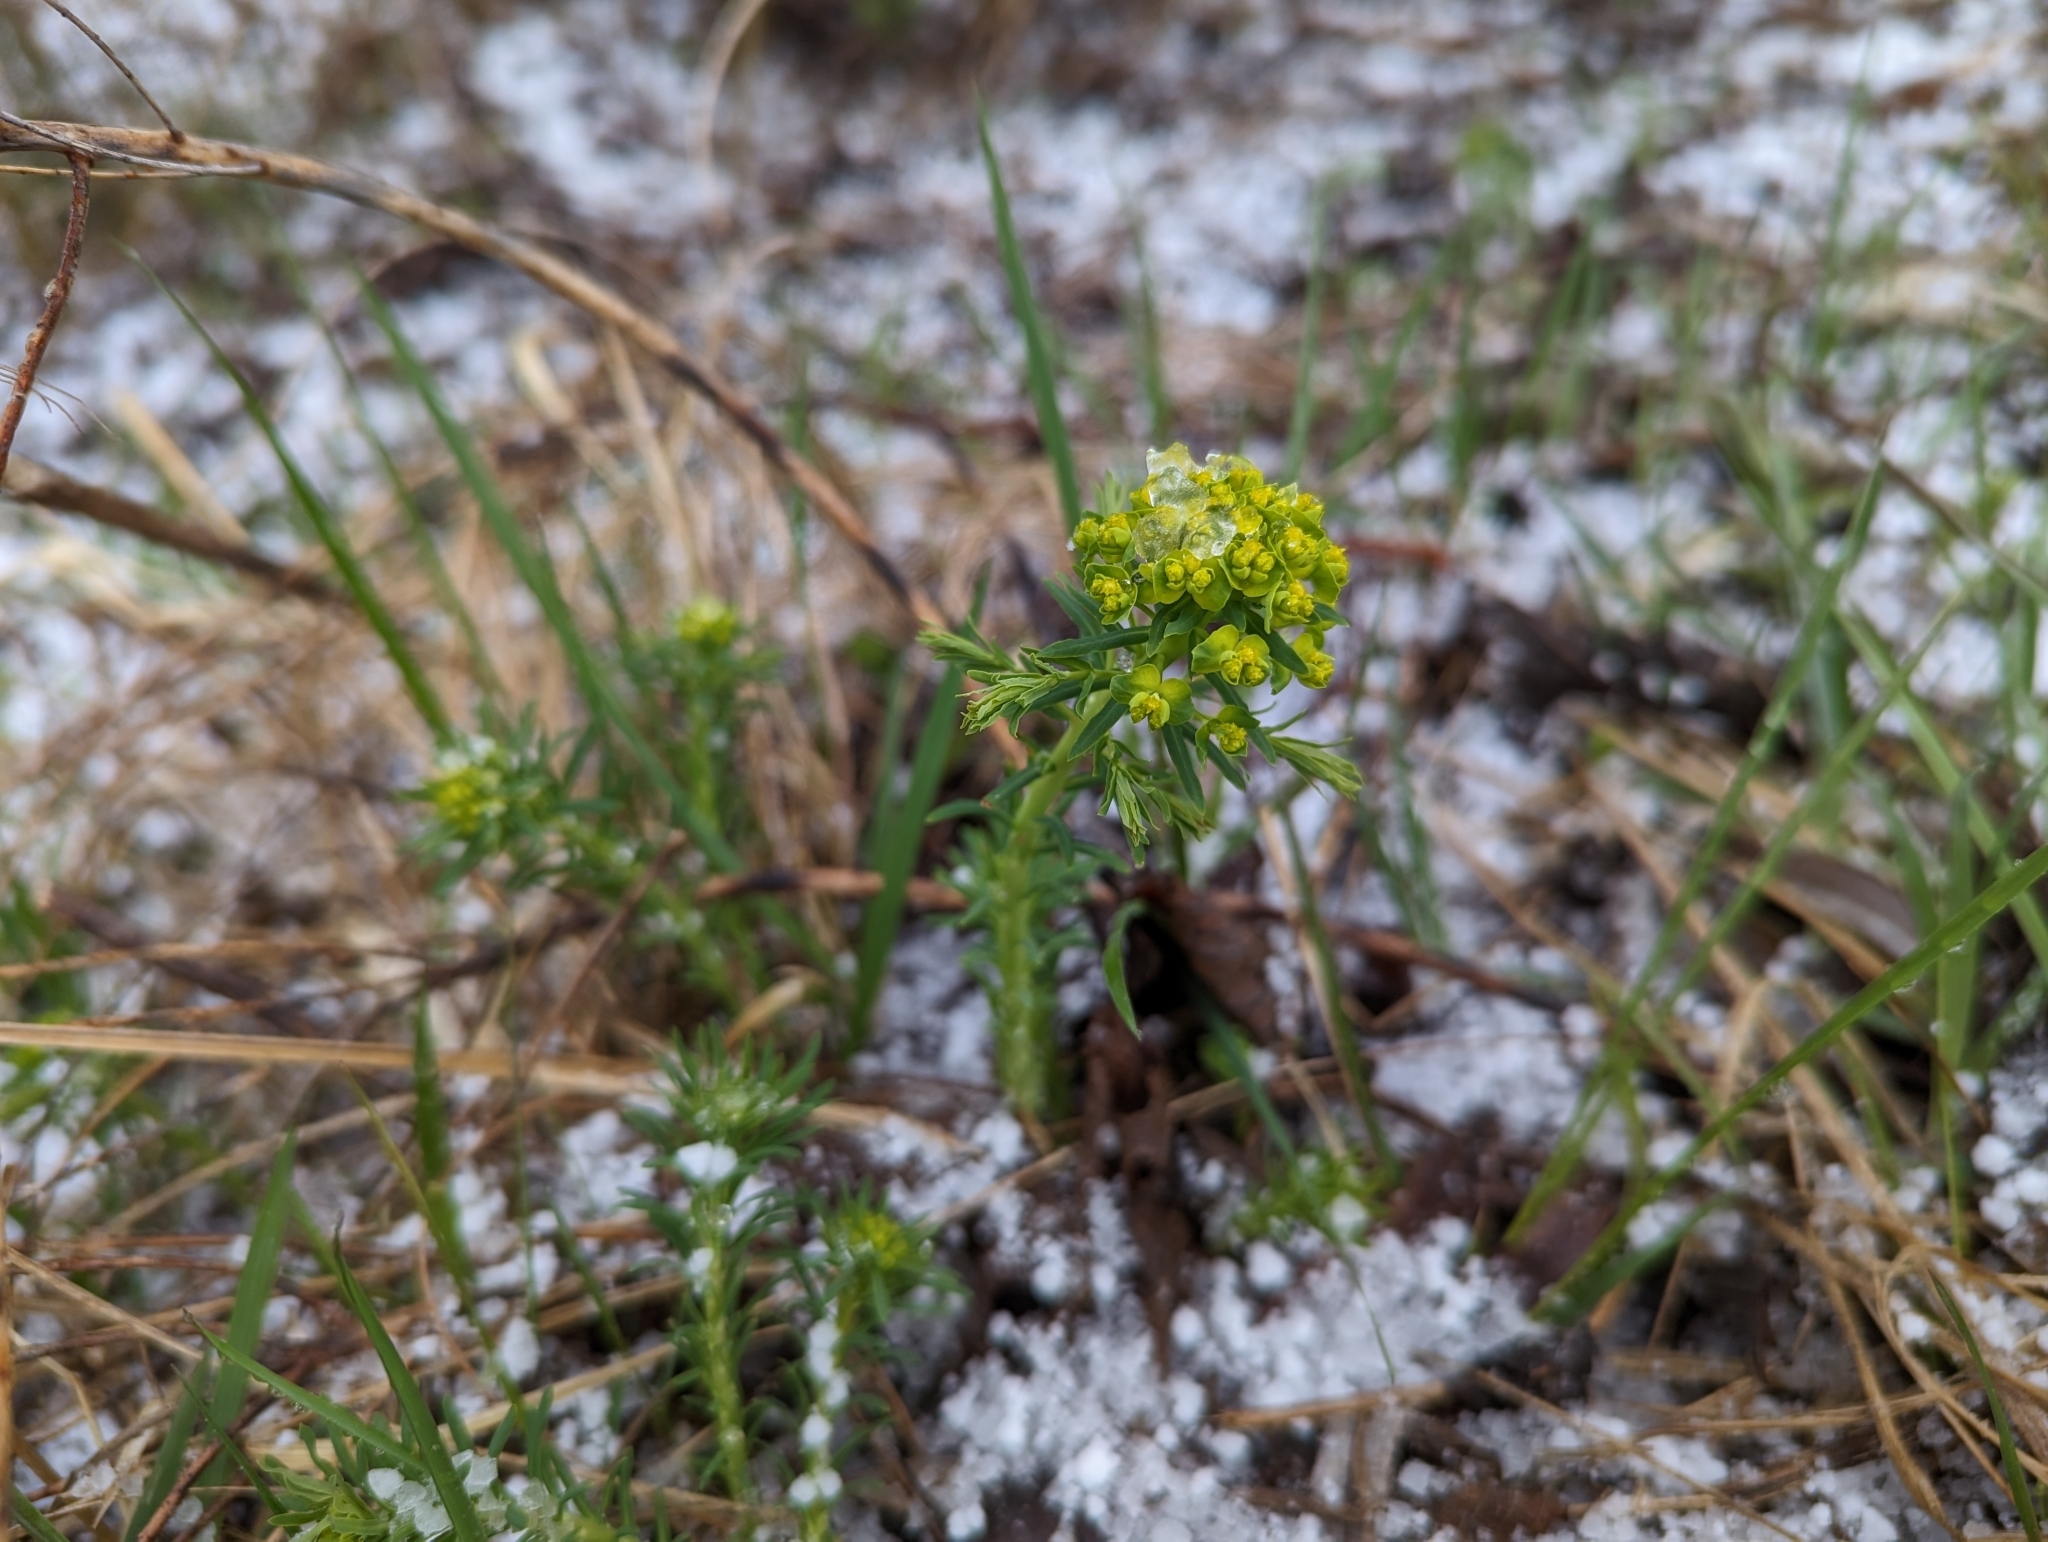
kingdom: Plantae
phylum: Tracheophyta
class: Magnoliopsida
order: Malpighiales
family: Euphorbiaceae
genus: Euphorbia
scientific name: Euphorbia cyparissias
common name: Cypress spurge
